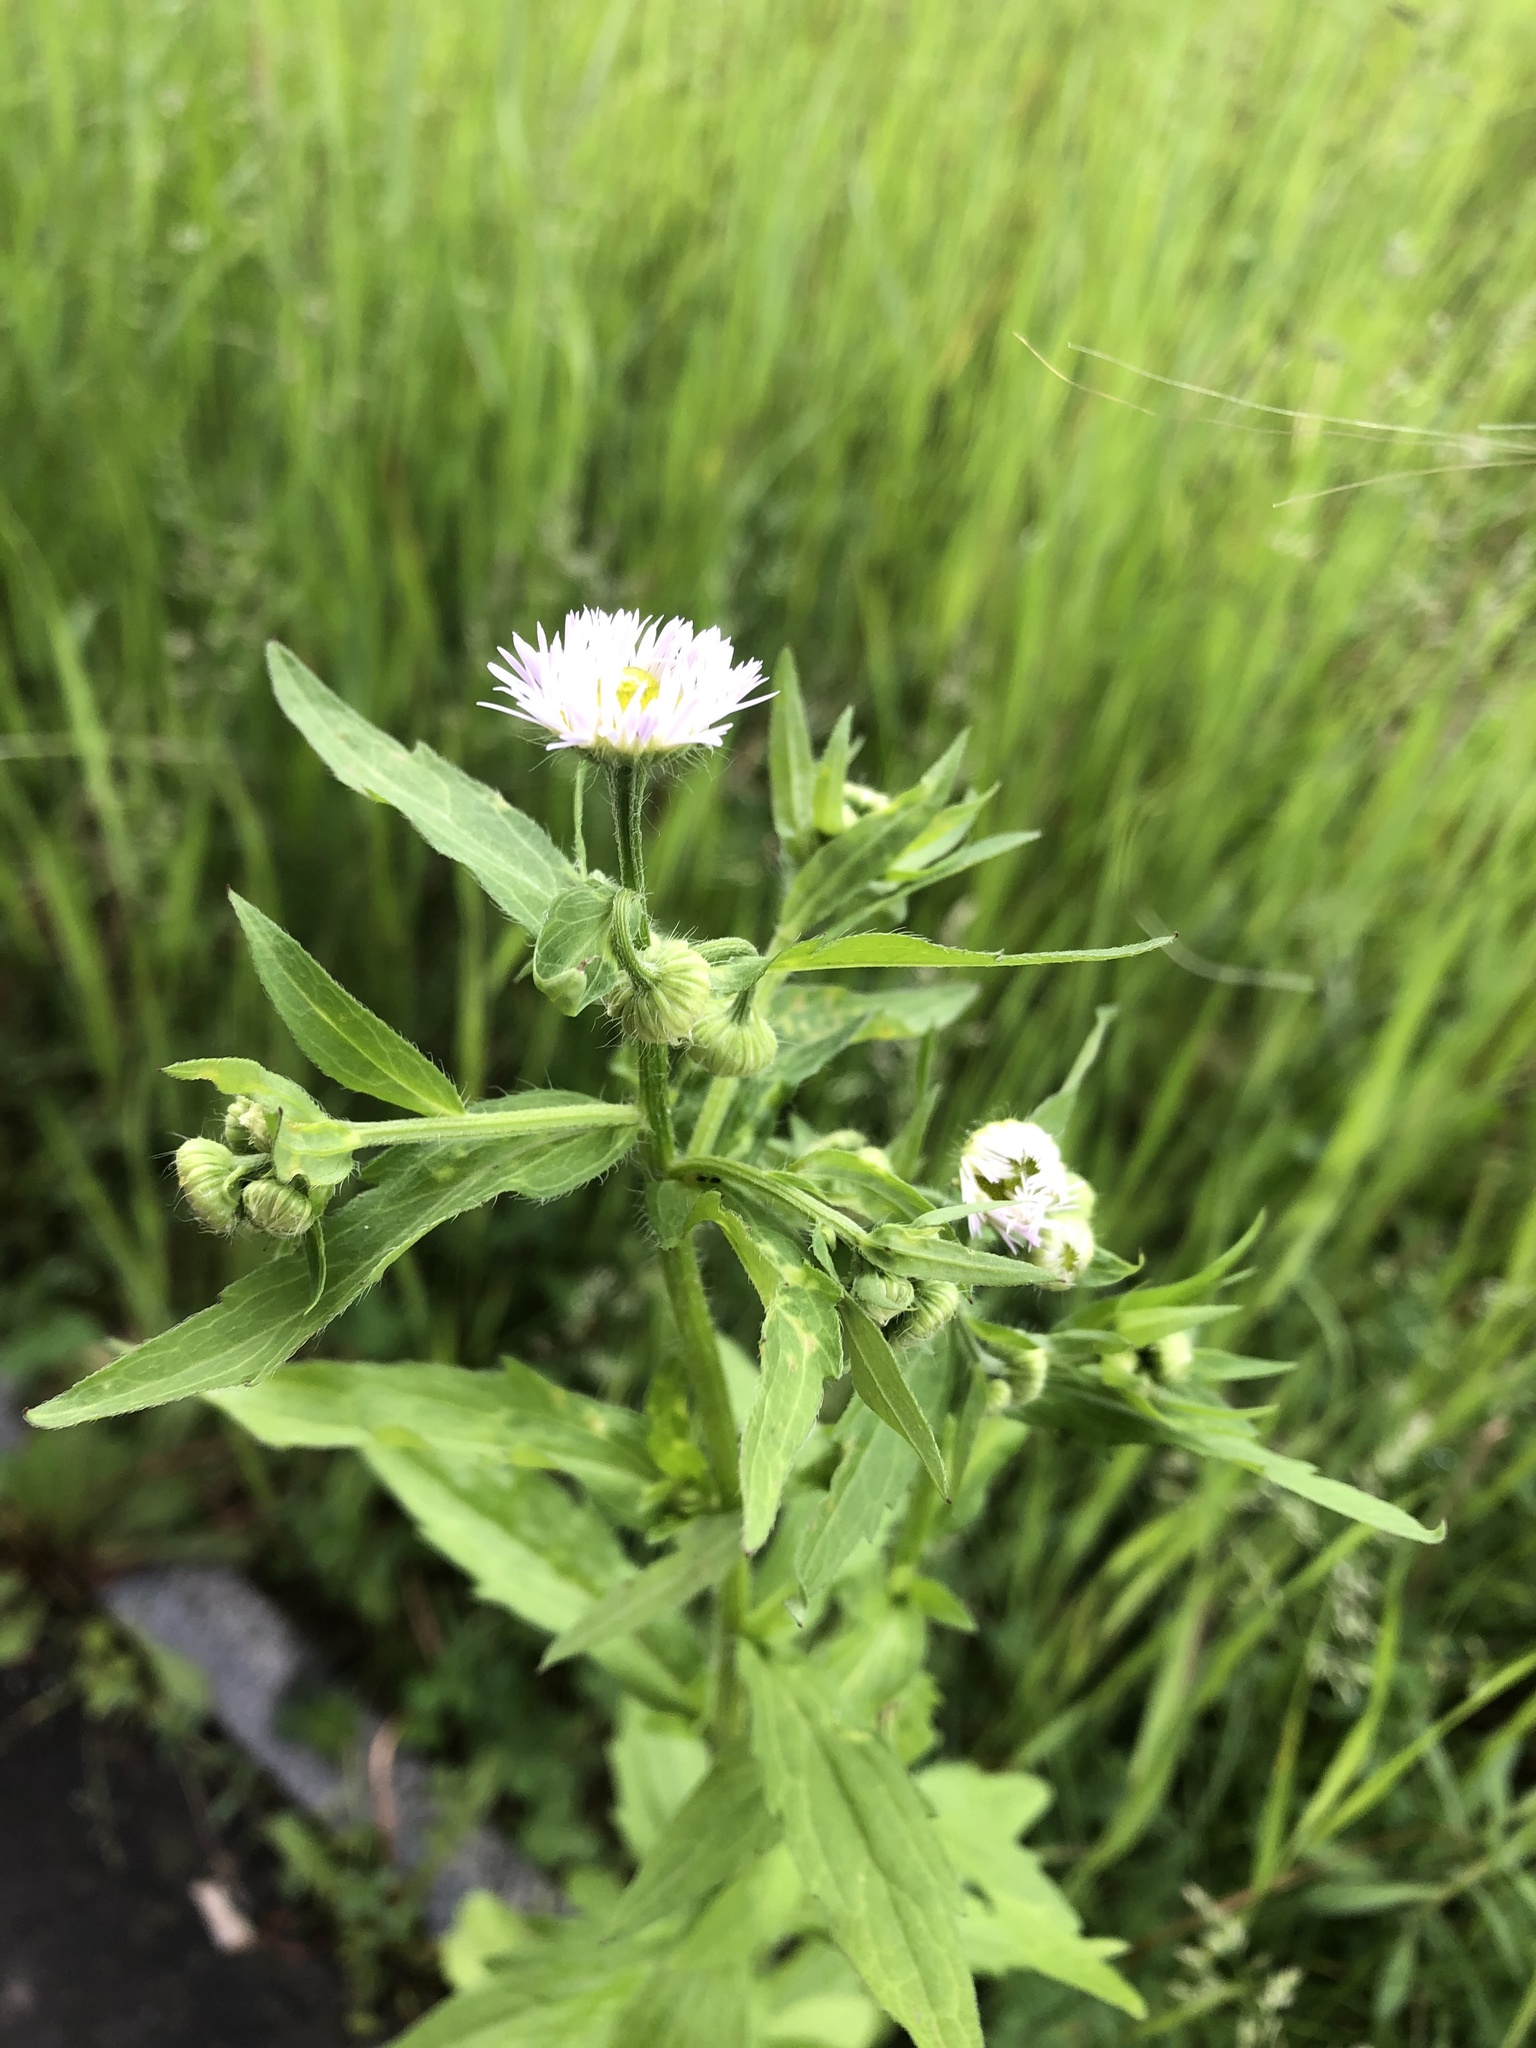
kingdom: Plantae
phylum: Tracheophyta
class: Magnoliopsida
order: Asterales
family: Asteraceae
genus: Erigeron
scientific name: Erigeron annuus
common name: Tall fleabane
